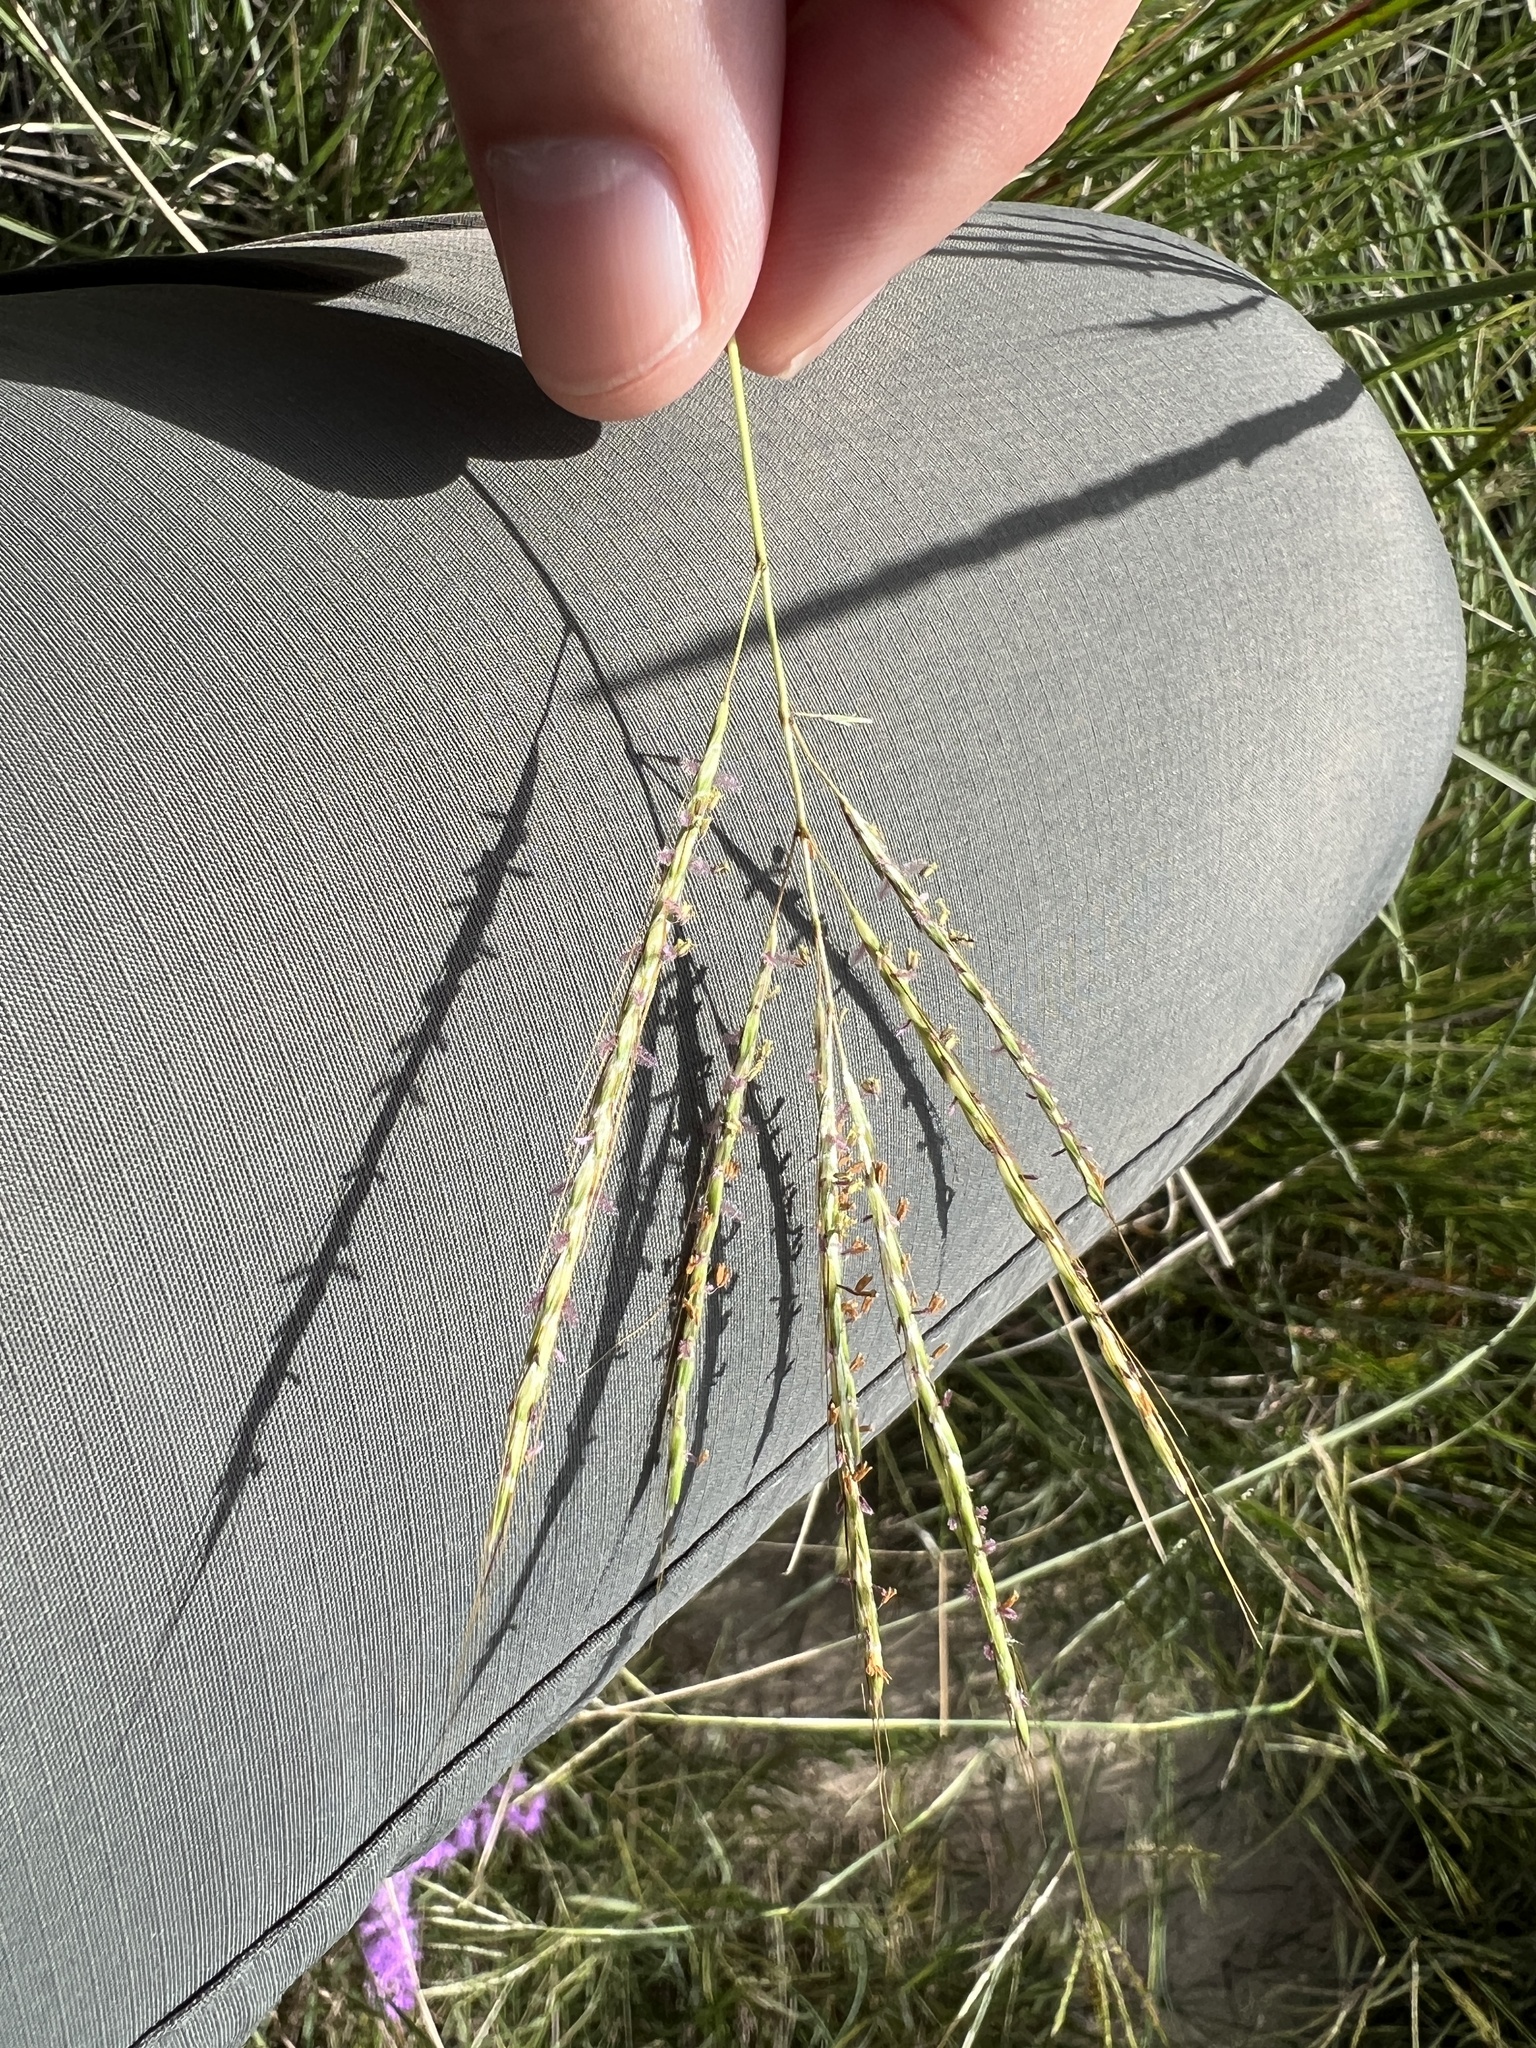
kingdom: Plantae
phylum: Tracheophyta
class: Liliopsida
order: Poales
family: Poaceae
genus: Bothriochloa
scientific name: Bothriochloa ischaemum
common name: Yellow bluestem
